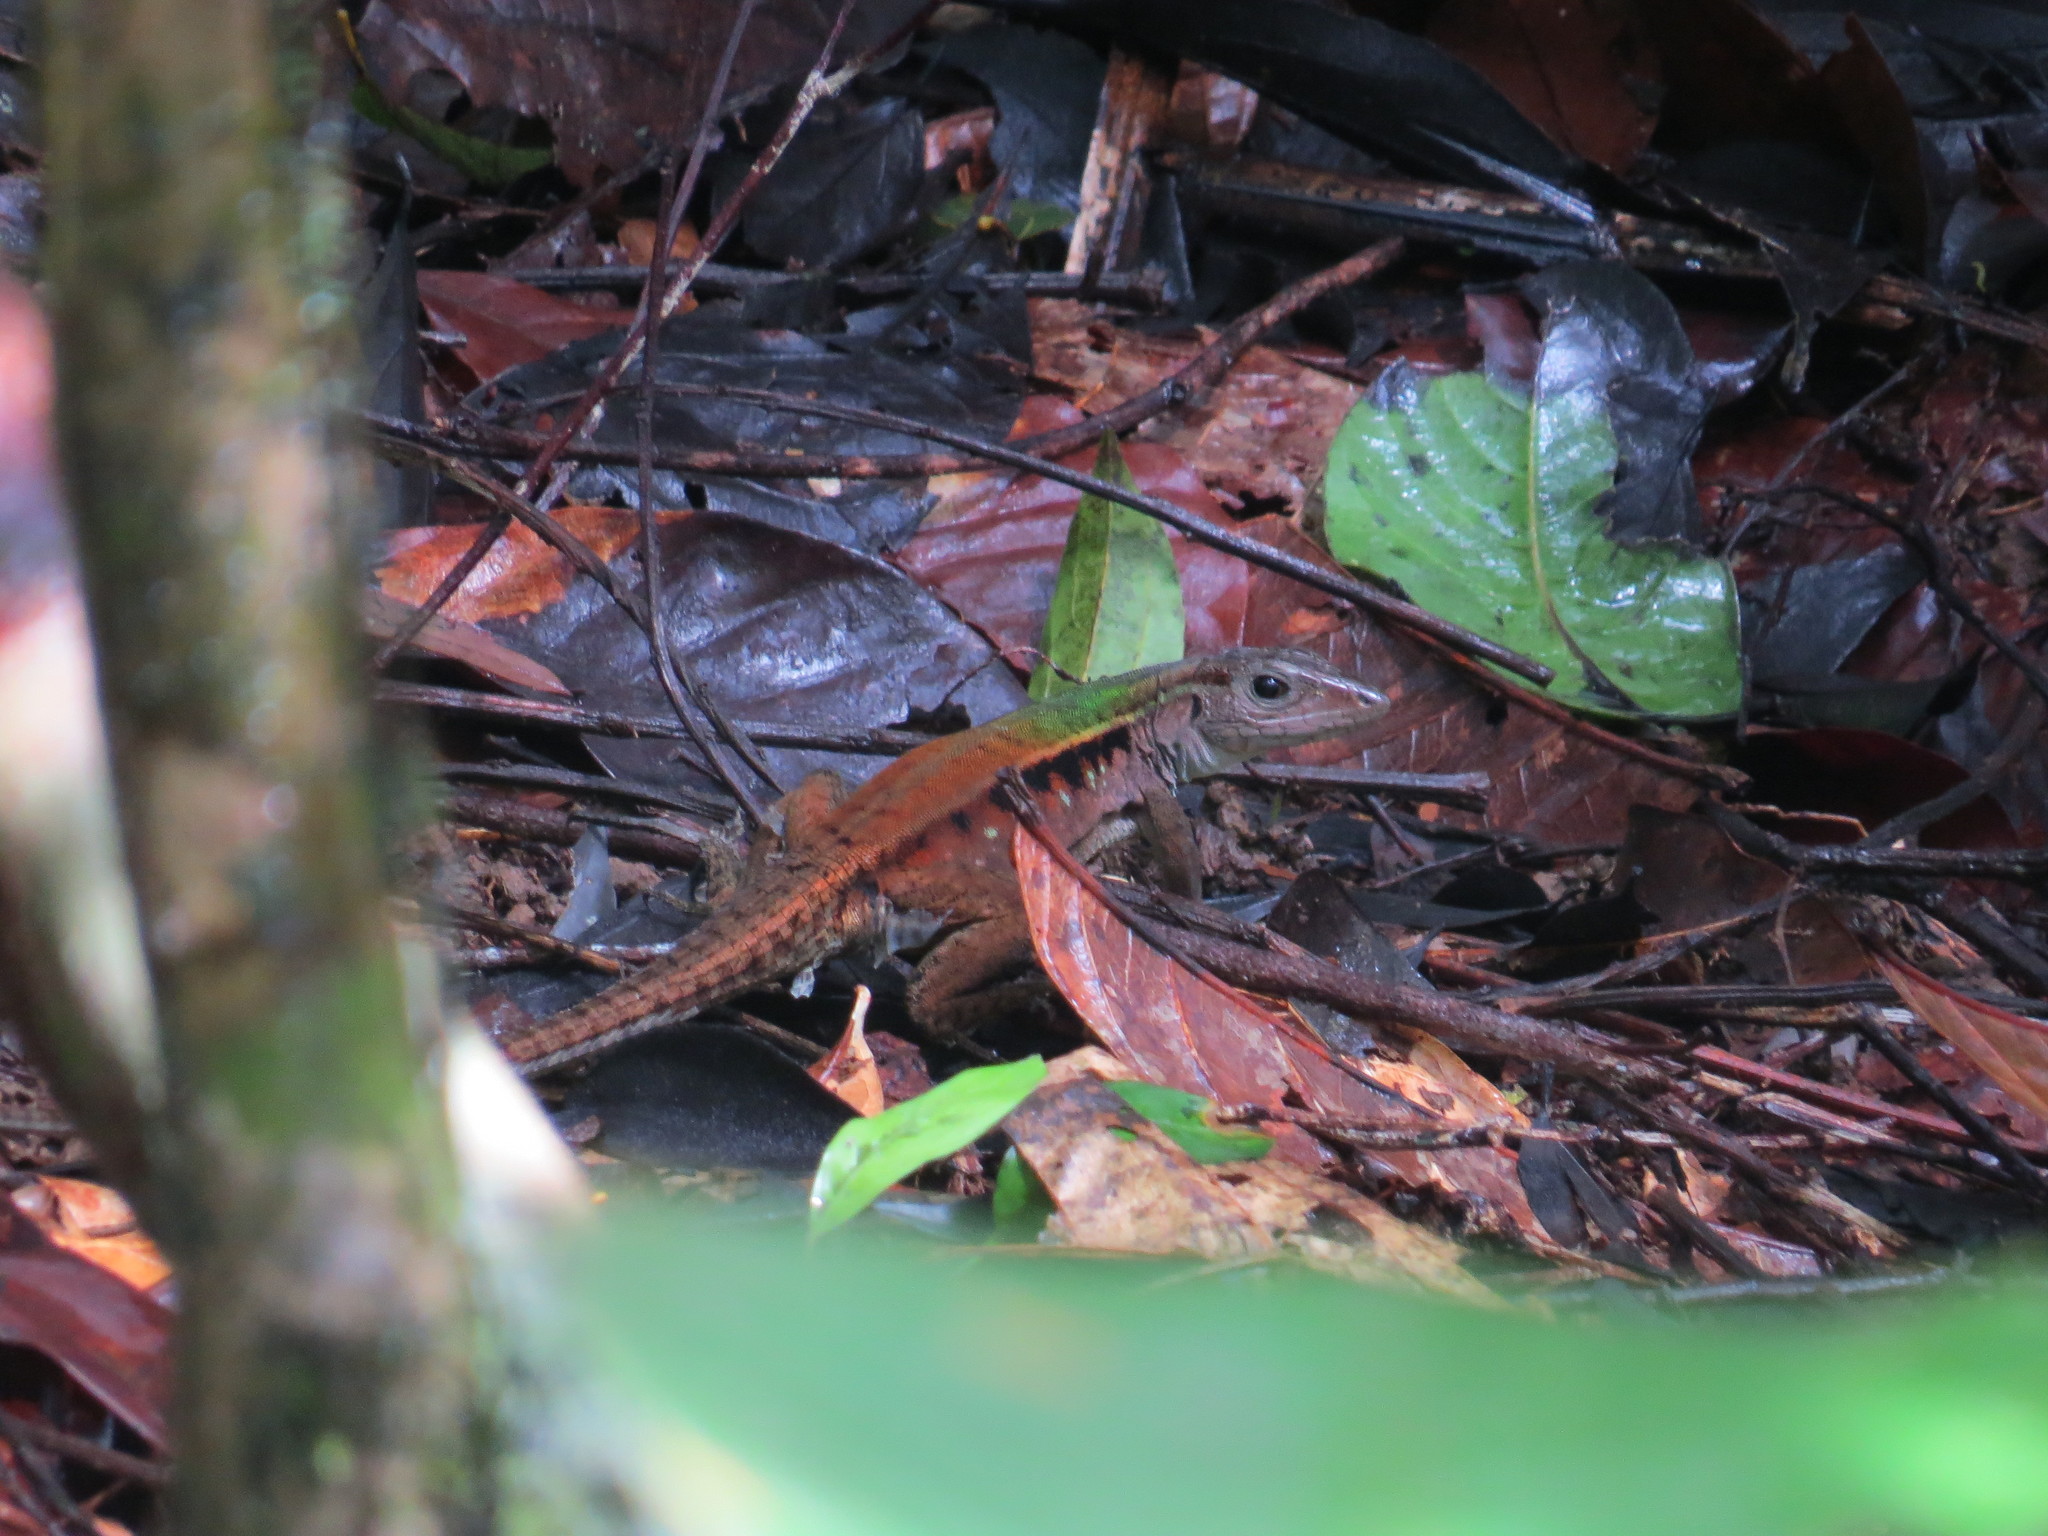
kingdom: Animalia
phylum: Chordata
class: Squamata
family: Teiidae
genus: Kentropyx
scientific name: Kentropyx calcarata
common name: Striped forest whiptail
